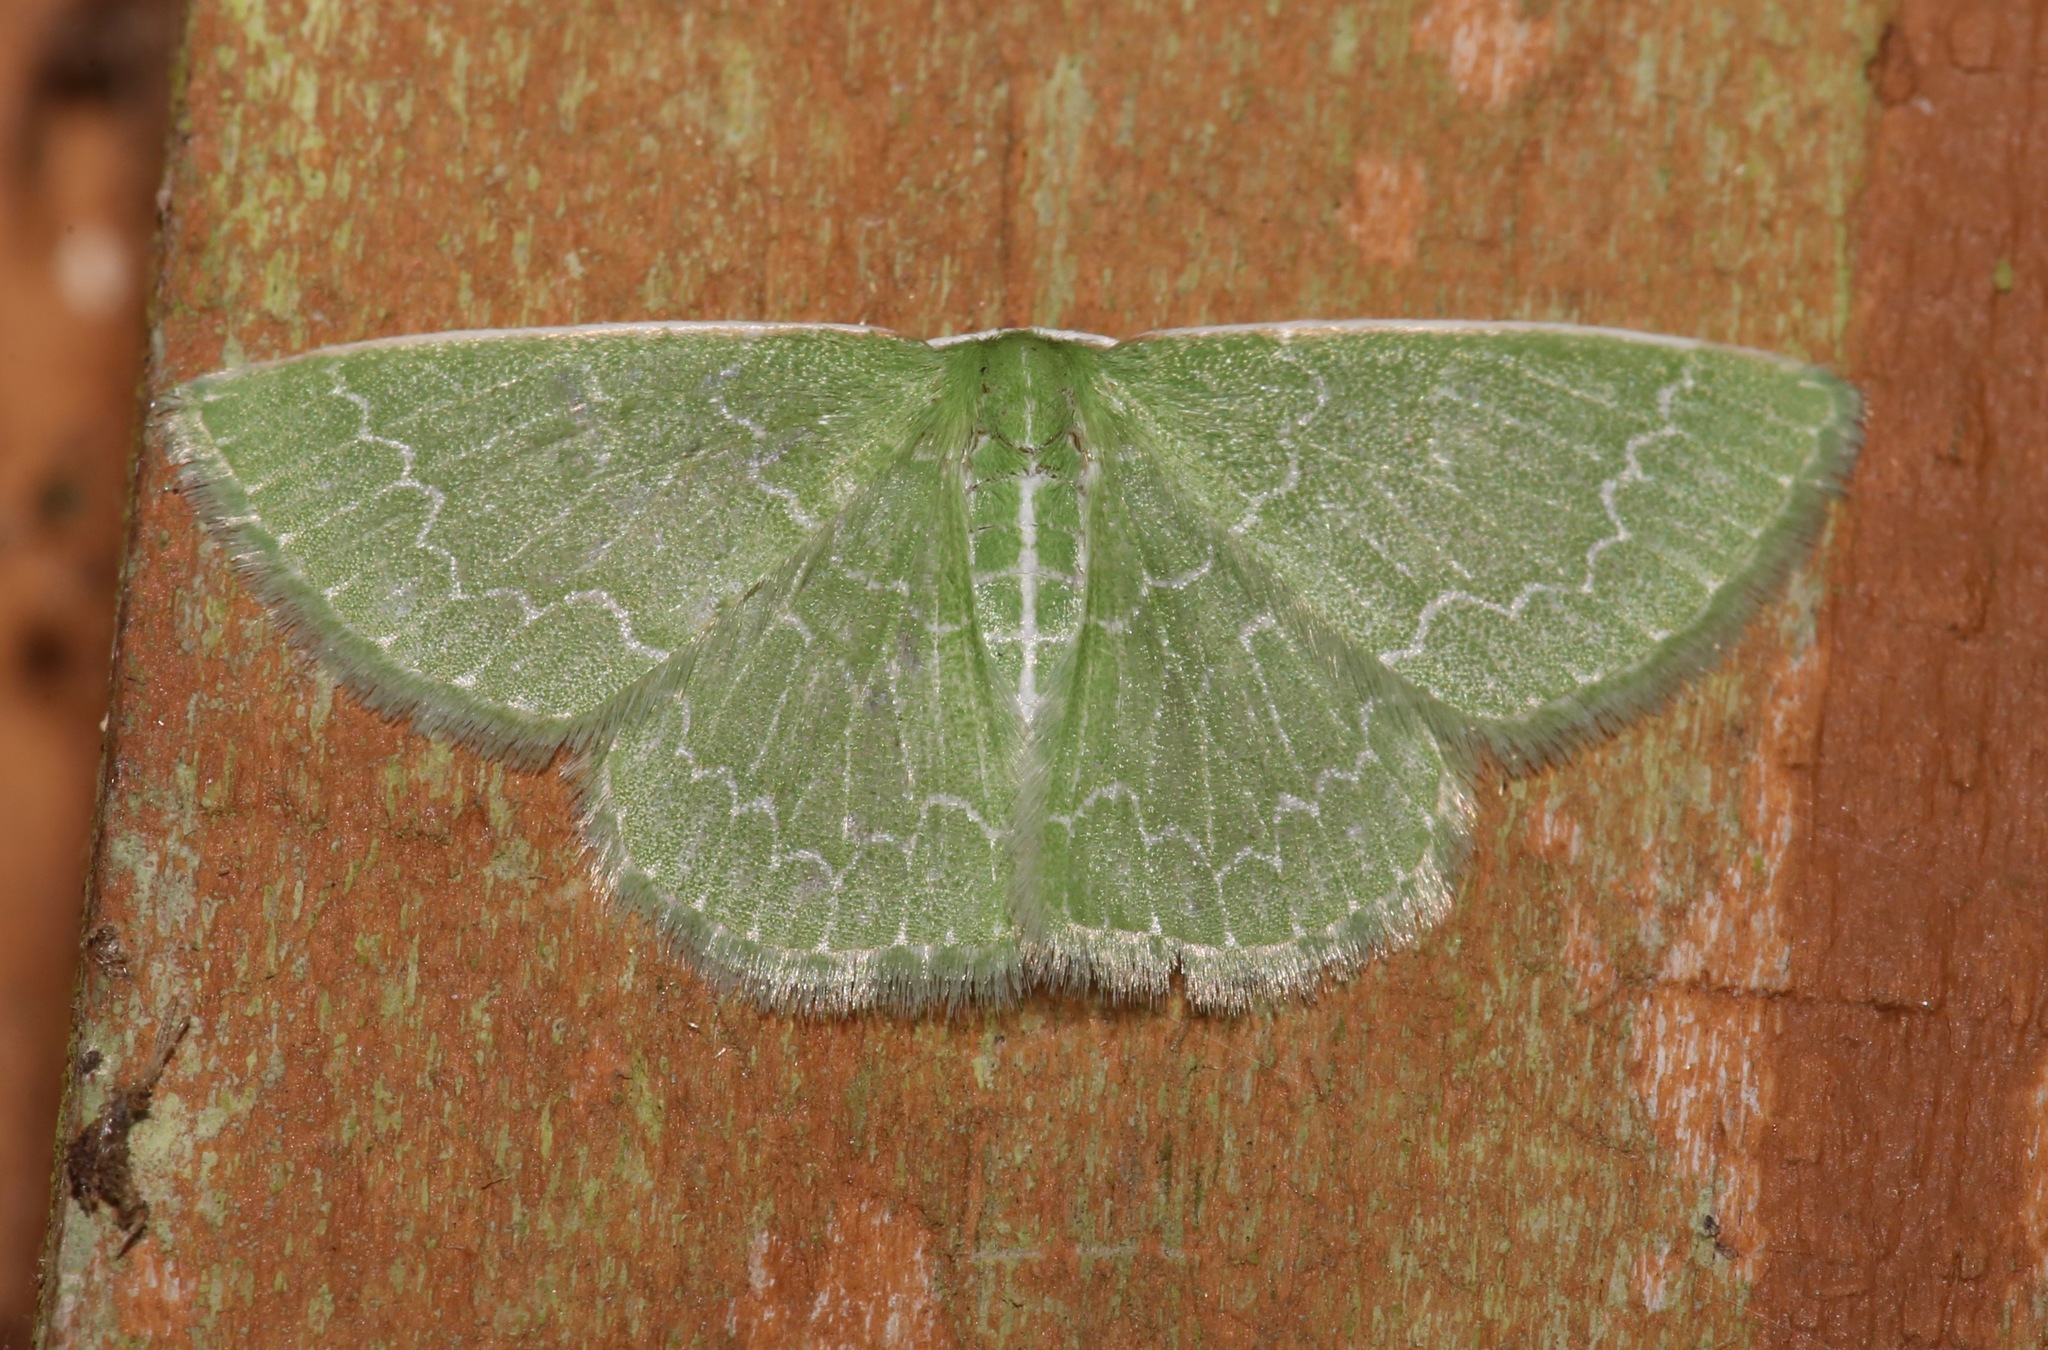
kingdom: Animalia
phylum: Arthropoda
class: Insecta
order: Lepidoptera
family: Geometridae
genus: Synchlora
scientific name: Synchlora frondaria
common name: Southern emerald
